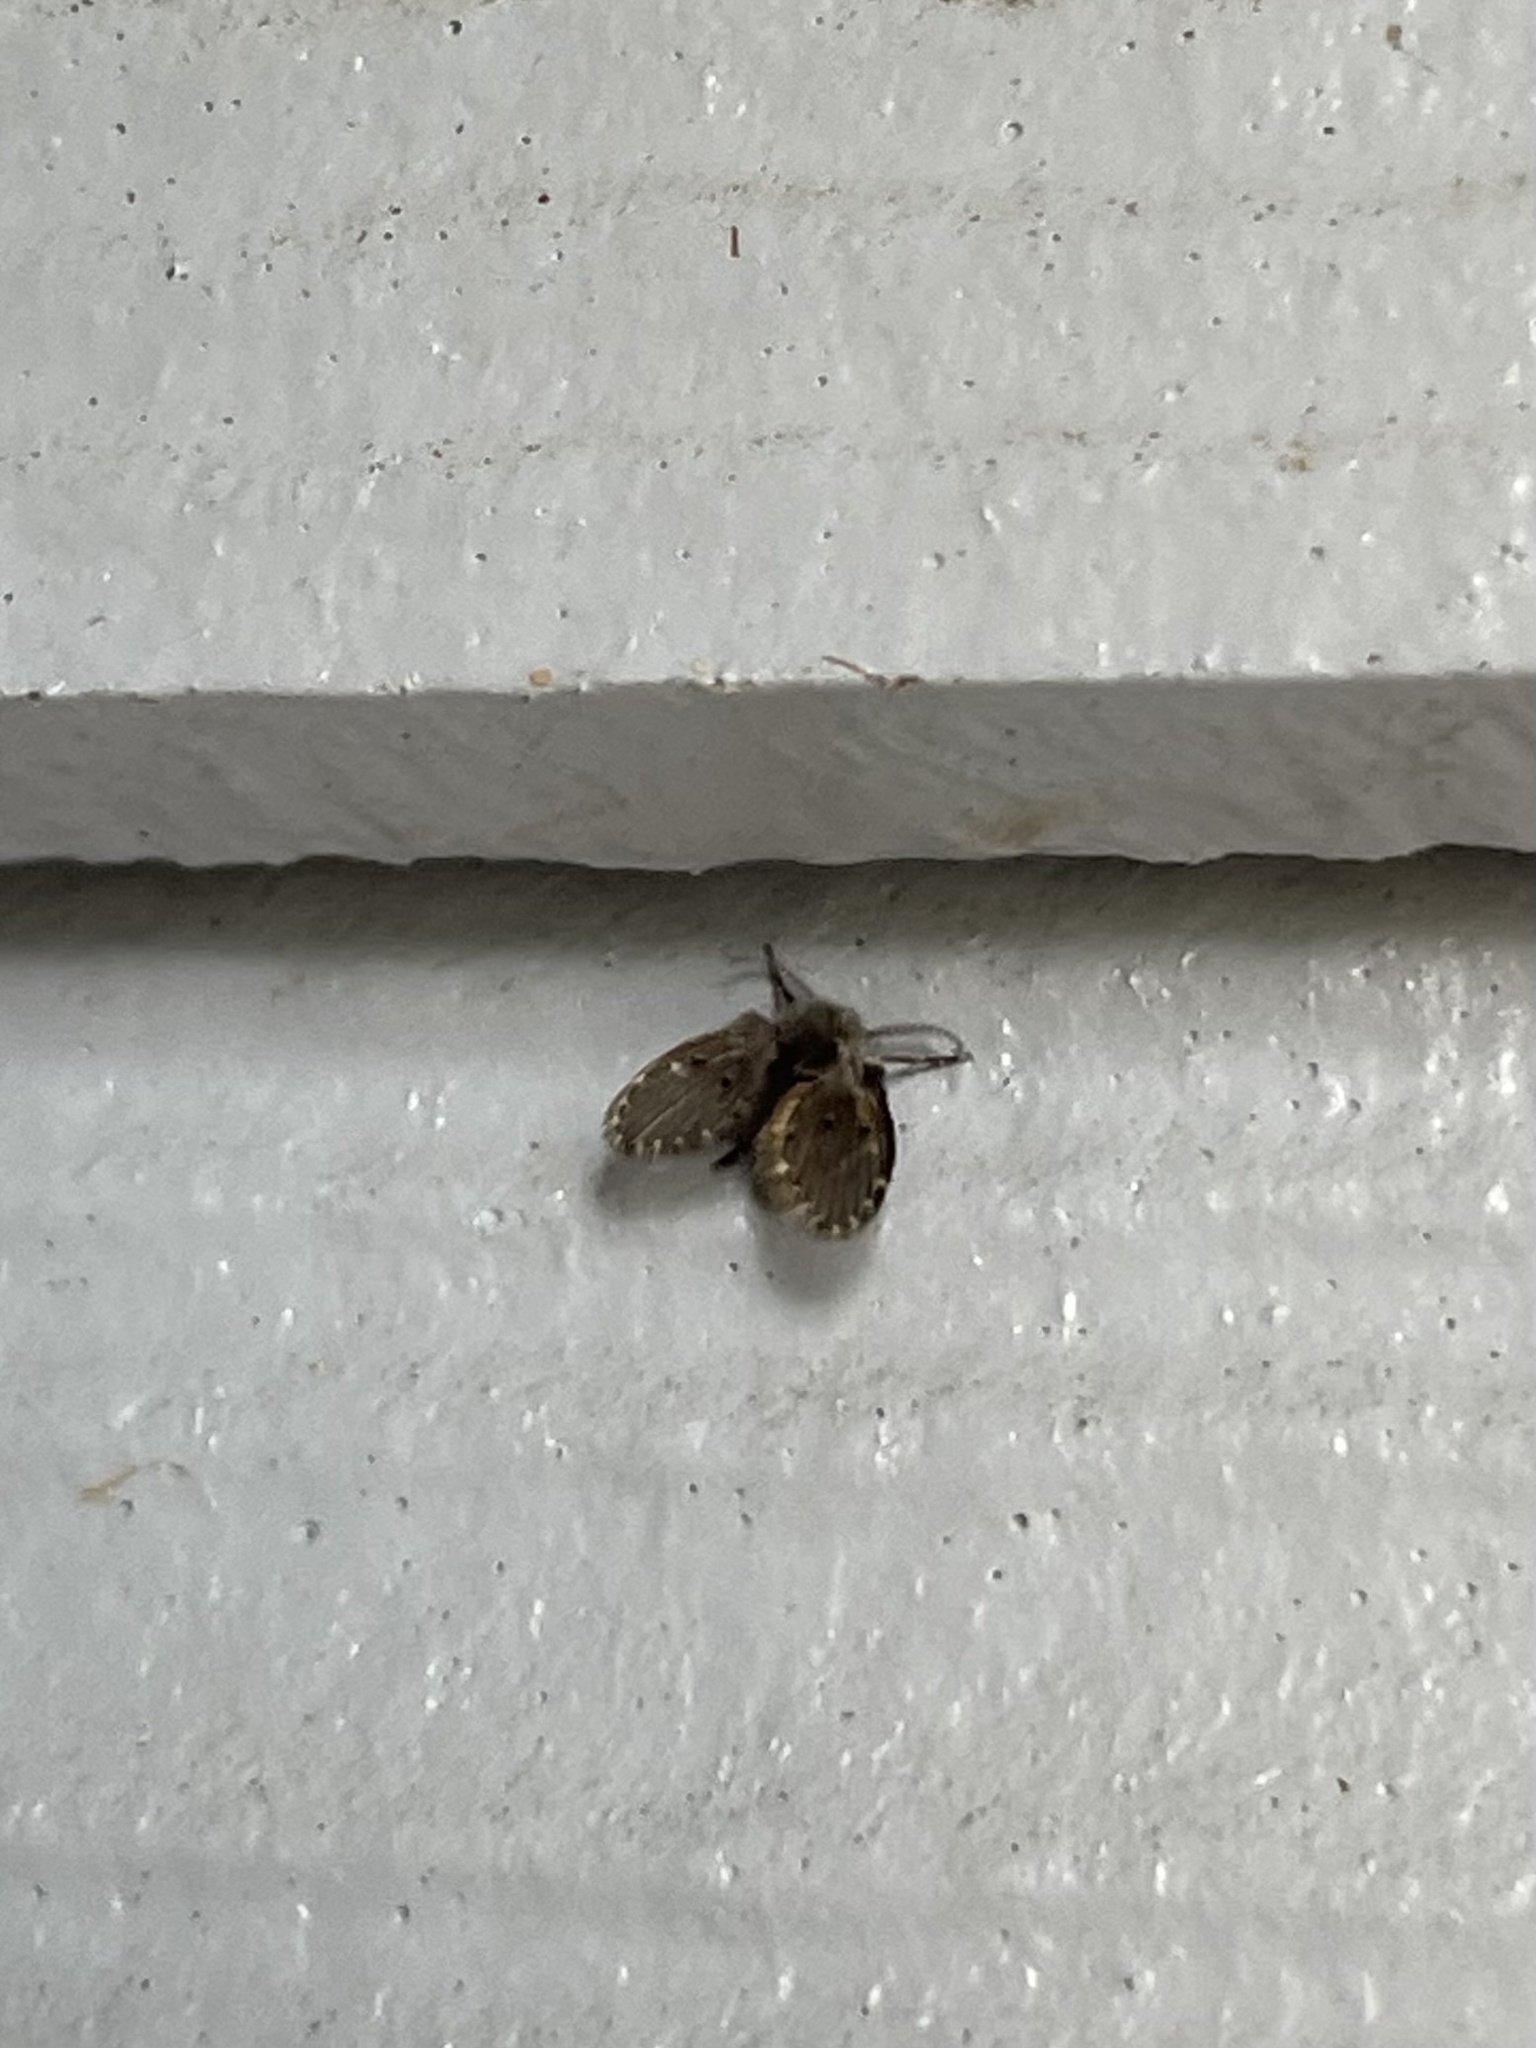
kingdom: Animalia
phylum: Arthropoda
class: Insecta
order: Diptera
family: Psychodidae
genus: Clogmia
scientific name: Clogmia albipunctatus
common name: White-spotted moth fly
